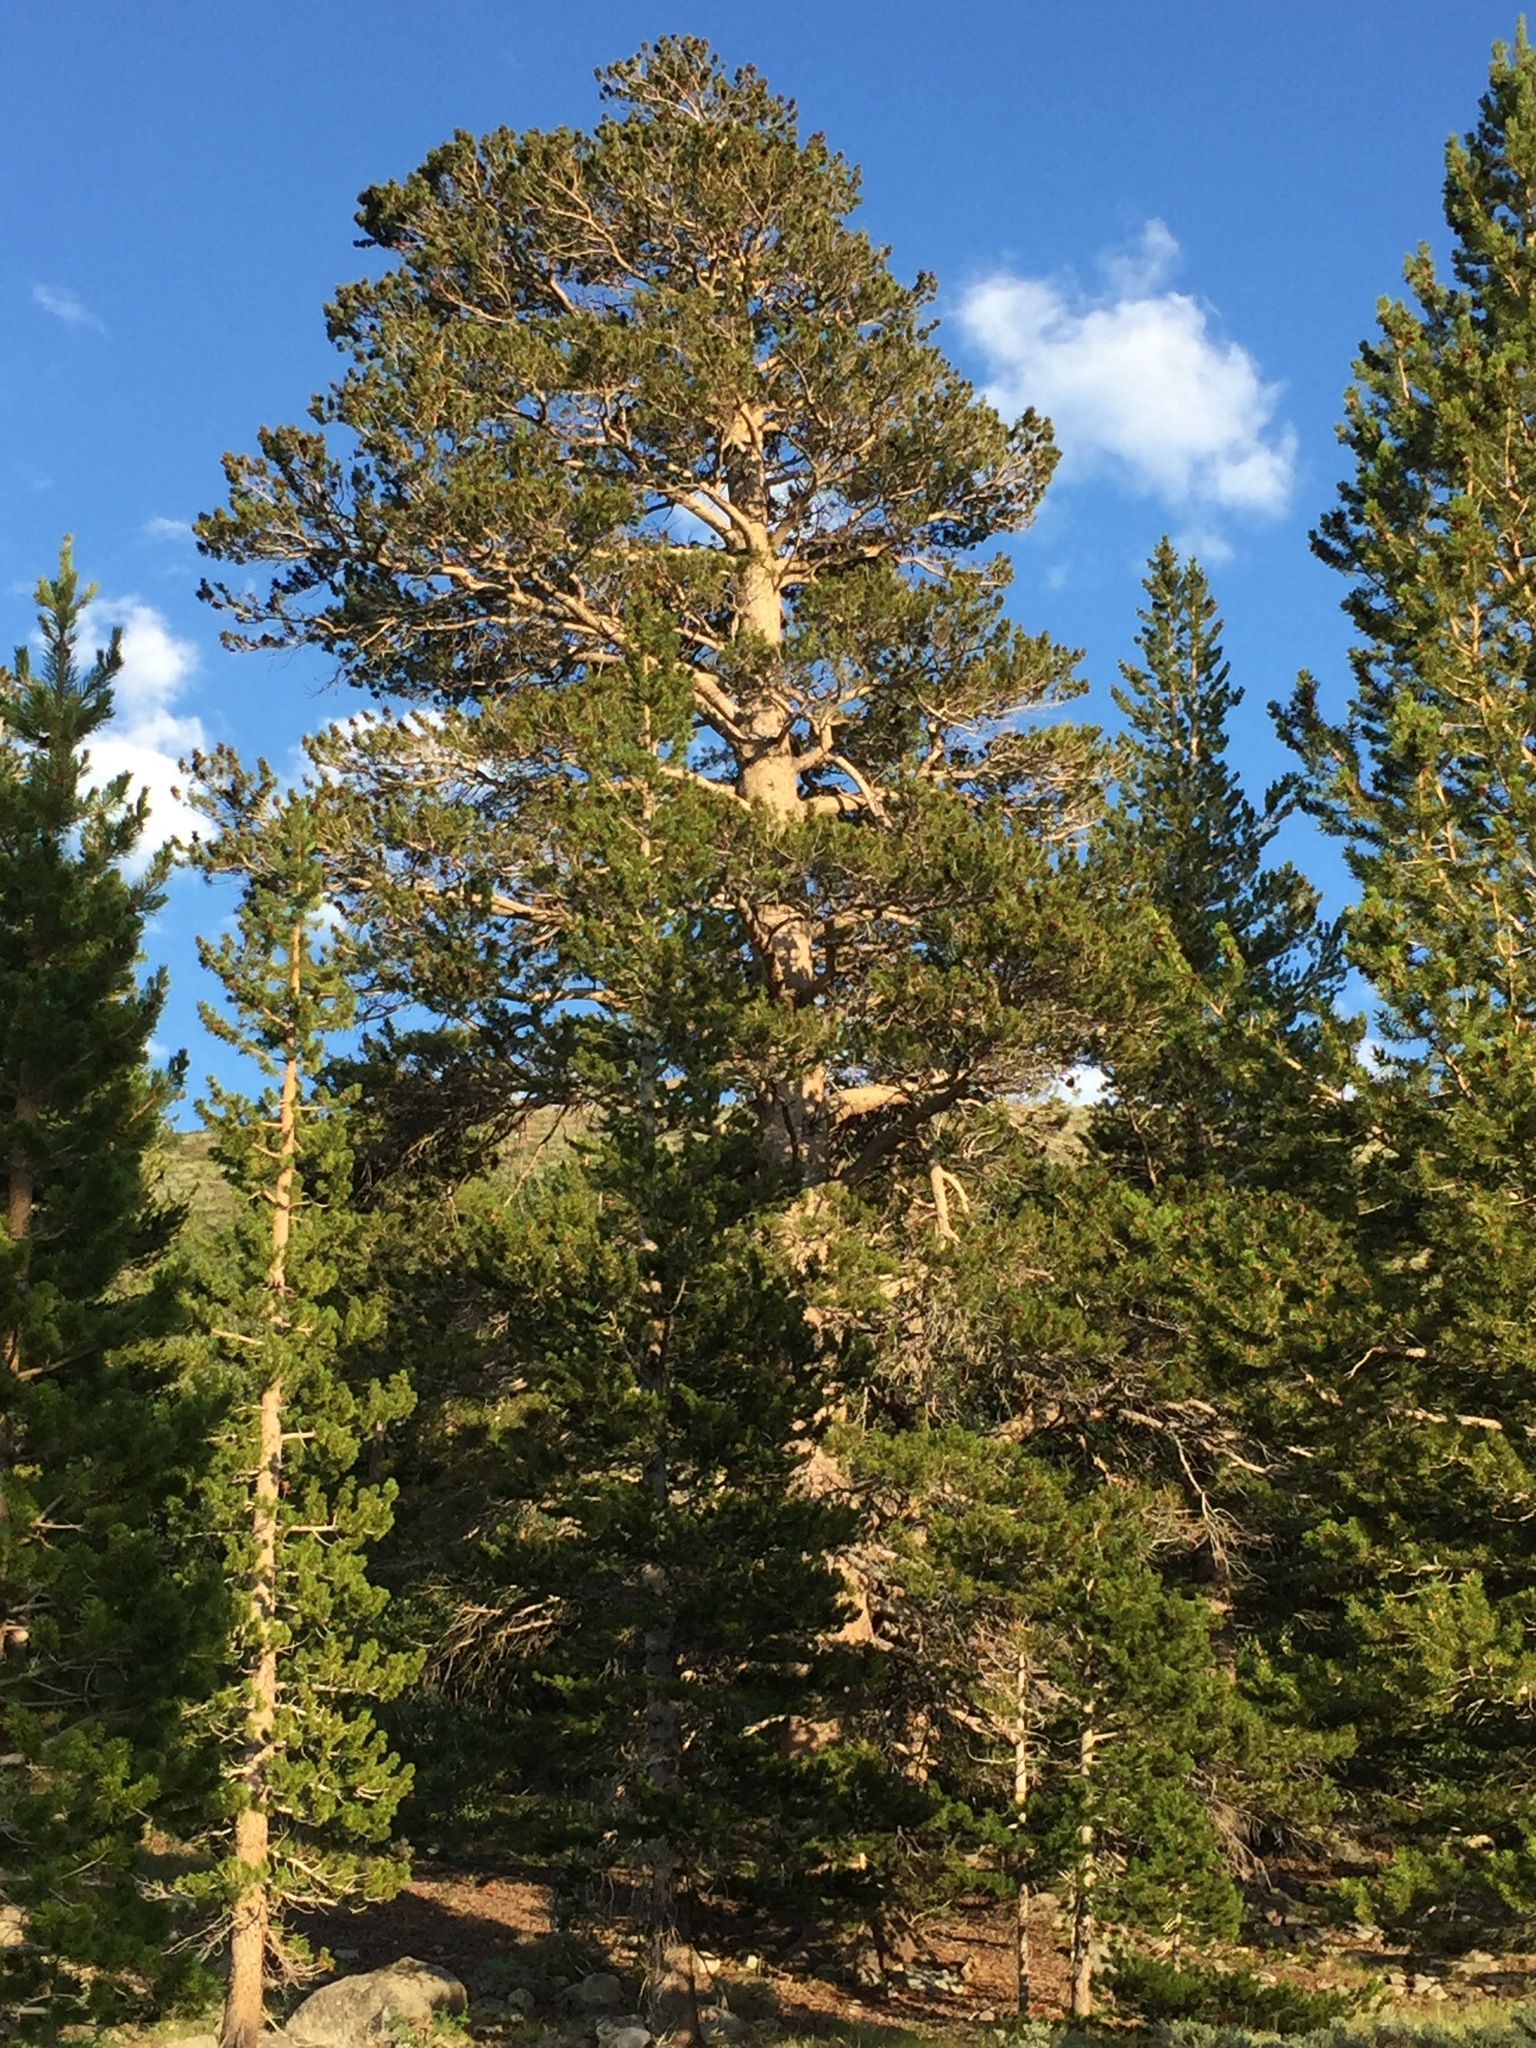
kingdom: Plantae
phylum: Tracheophyta
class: Pinopsida
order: Pinales
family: Pinaceae
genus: Pinus
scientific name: Pinus contorta
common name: Lodgepole pine
